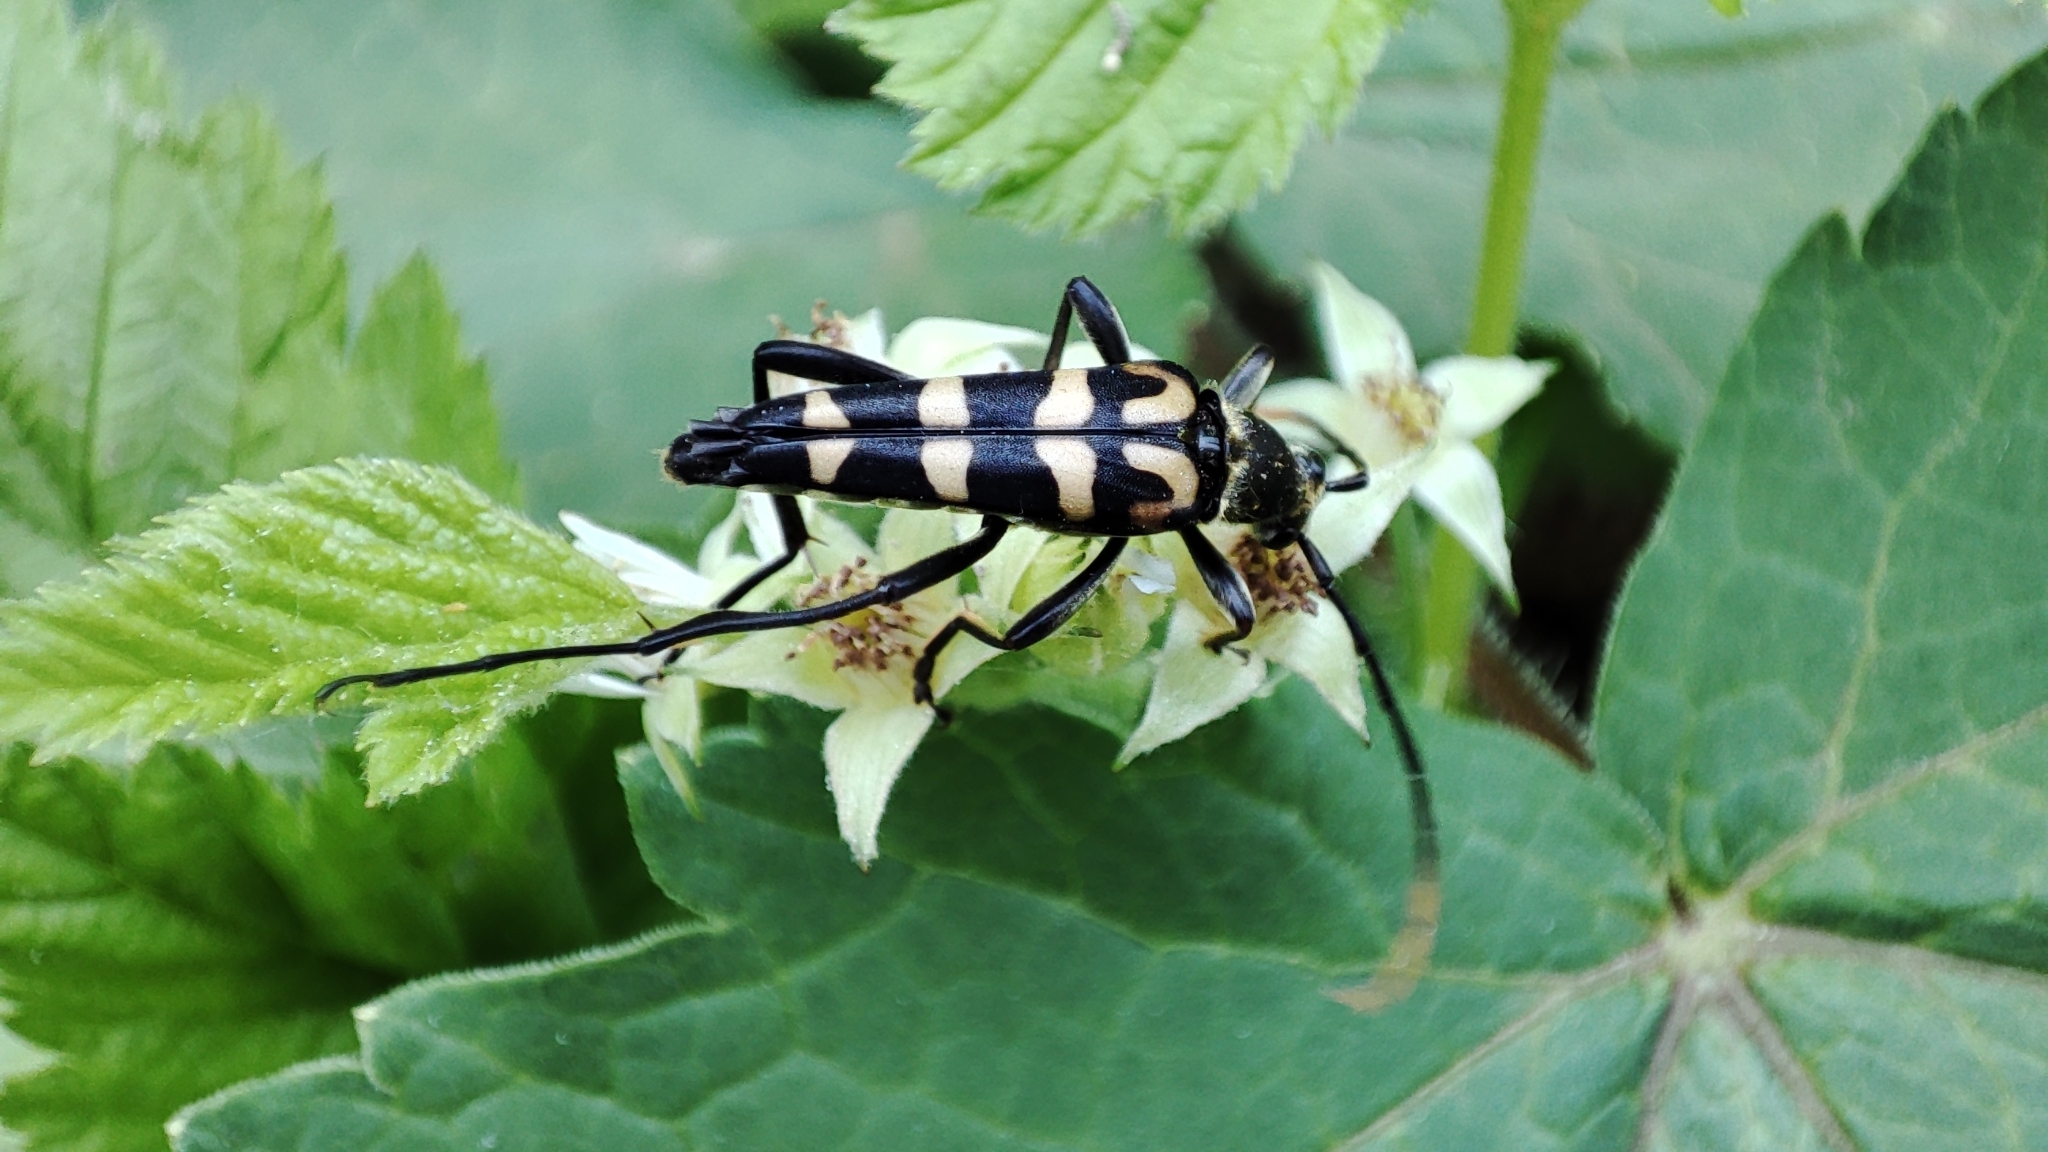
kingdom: Animalia
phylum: Arthropoda
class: Insecta
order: Coleoptera
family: Cerambycidae
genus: Leptura
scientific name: Leptura annularis
